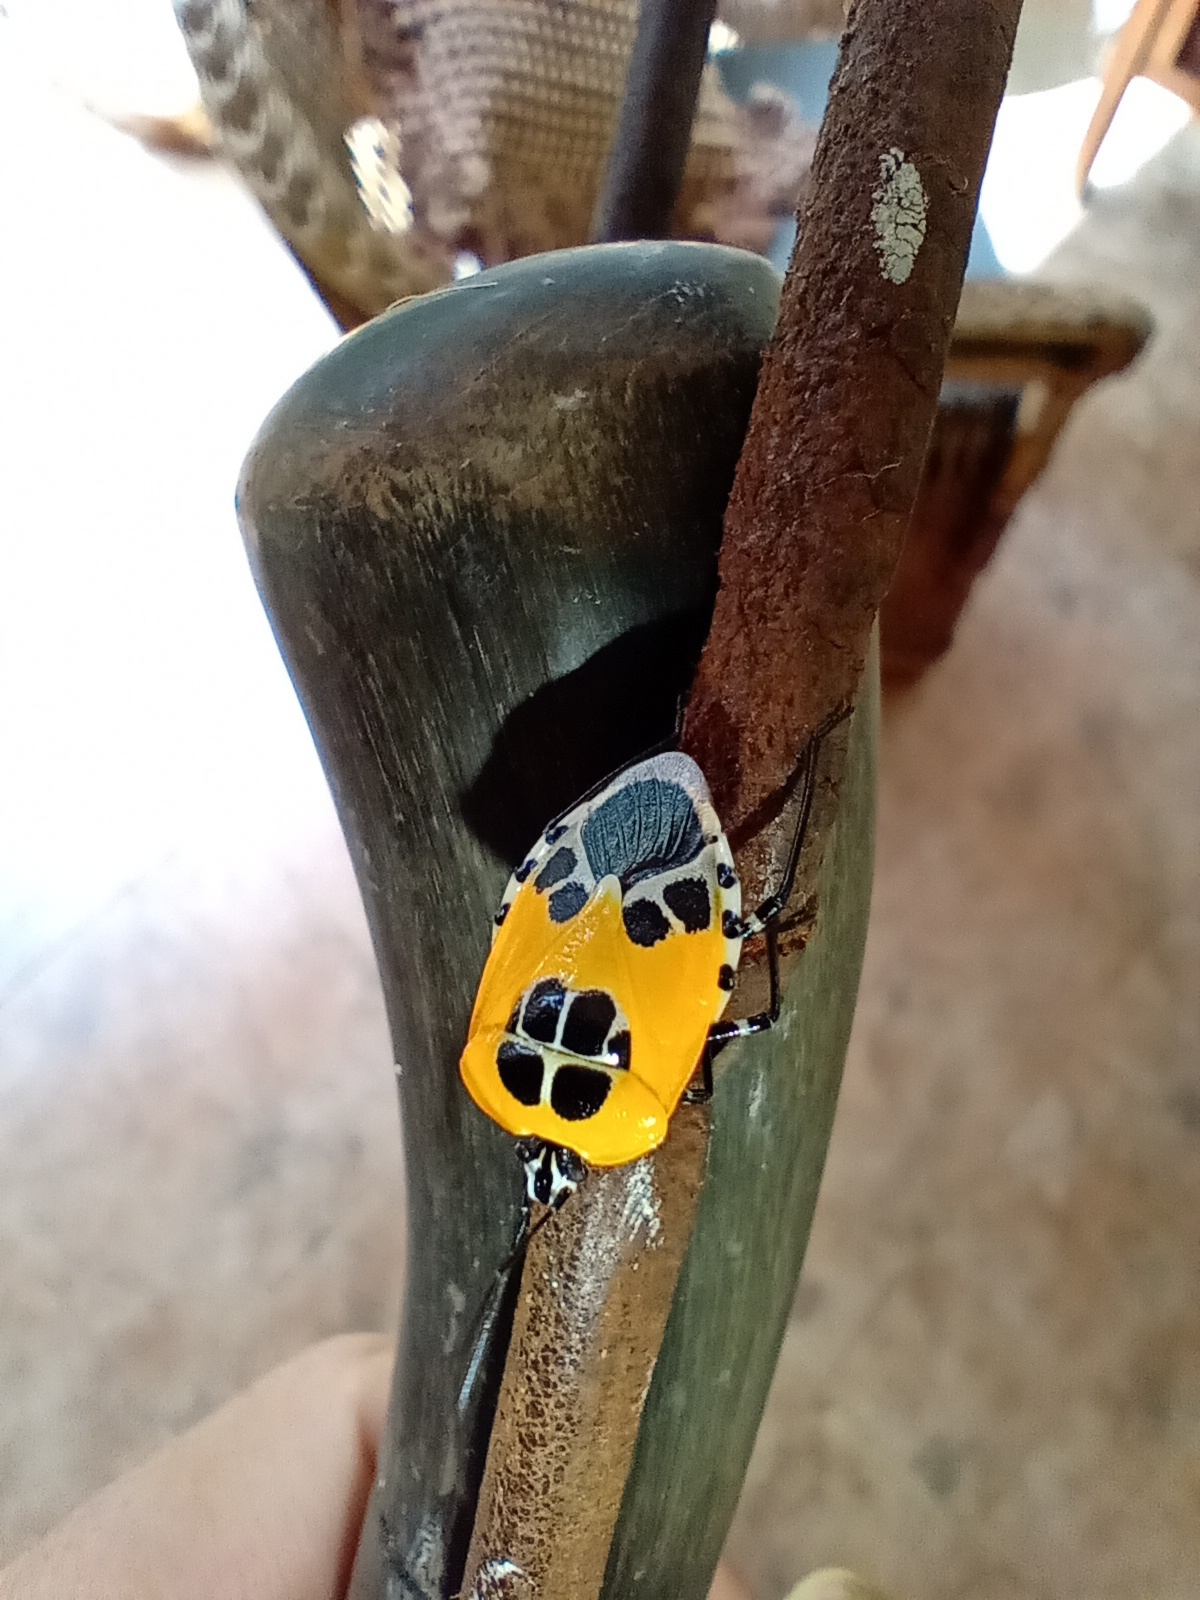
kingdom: Animalia
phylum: Arthropoda
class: Insecta
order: Hemiptera
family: Pentatomidae
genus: Runibia
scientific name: Runibia decorata
